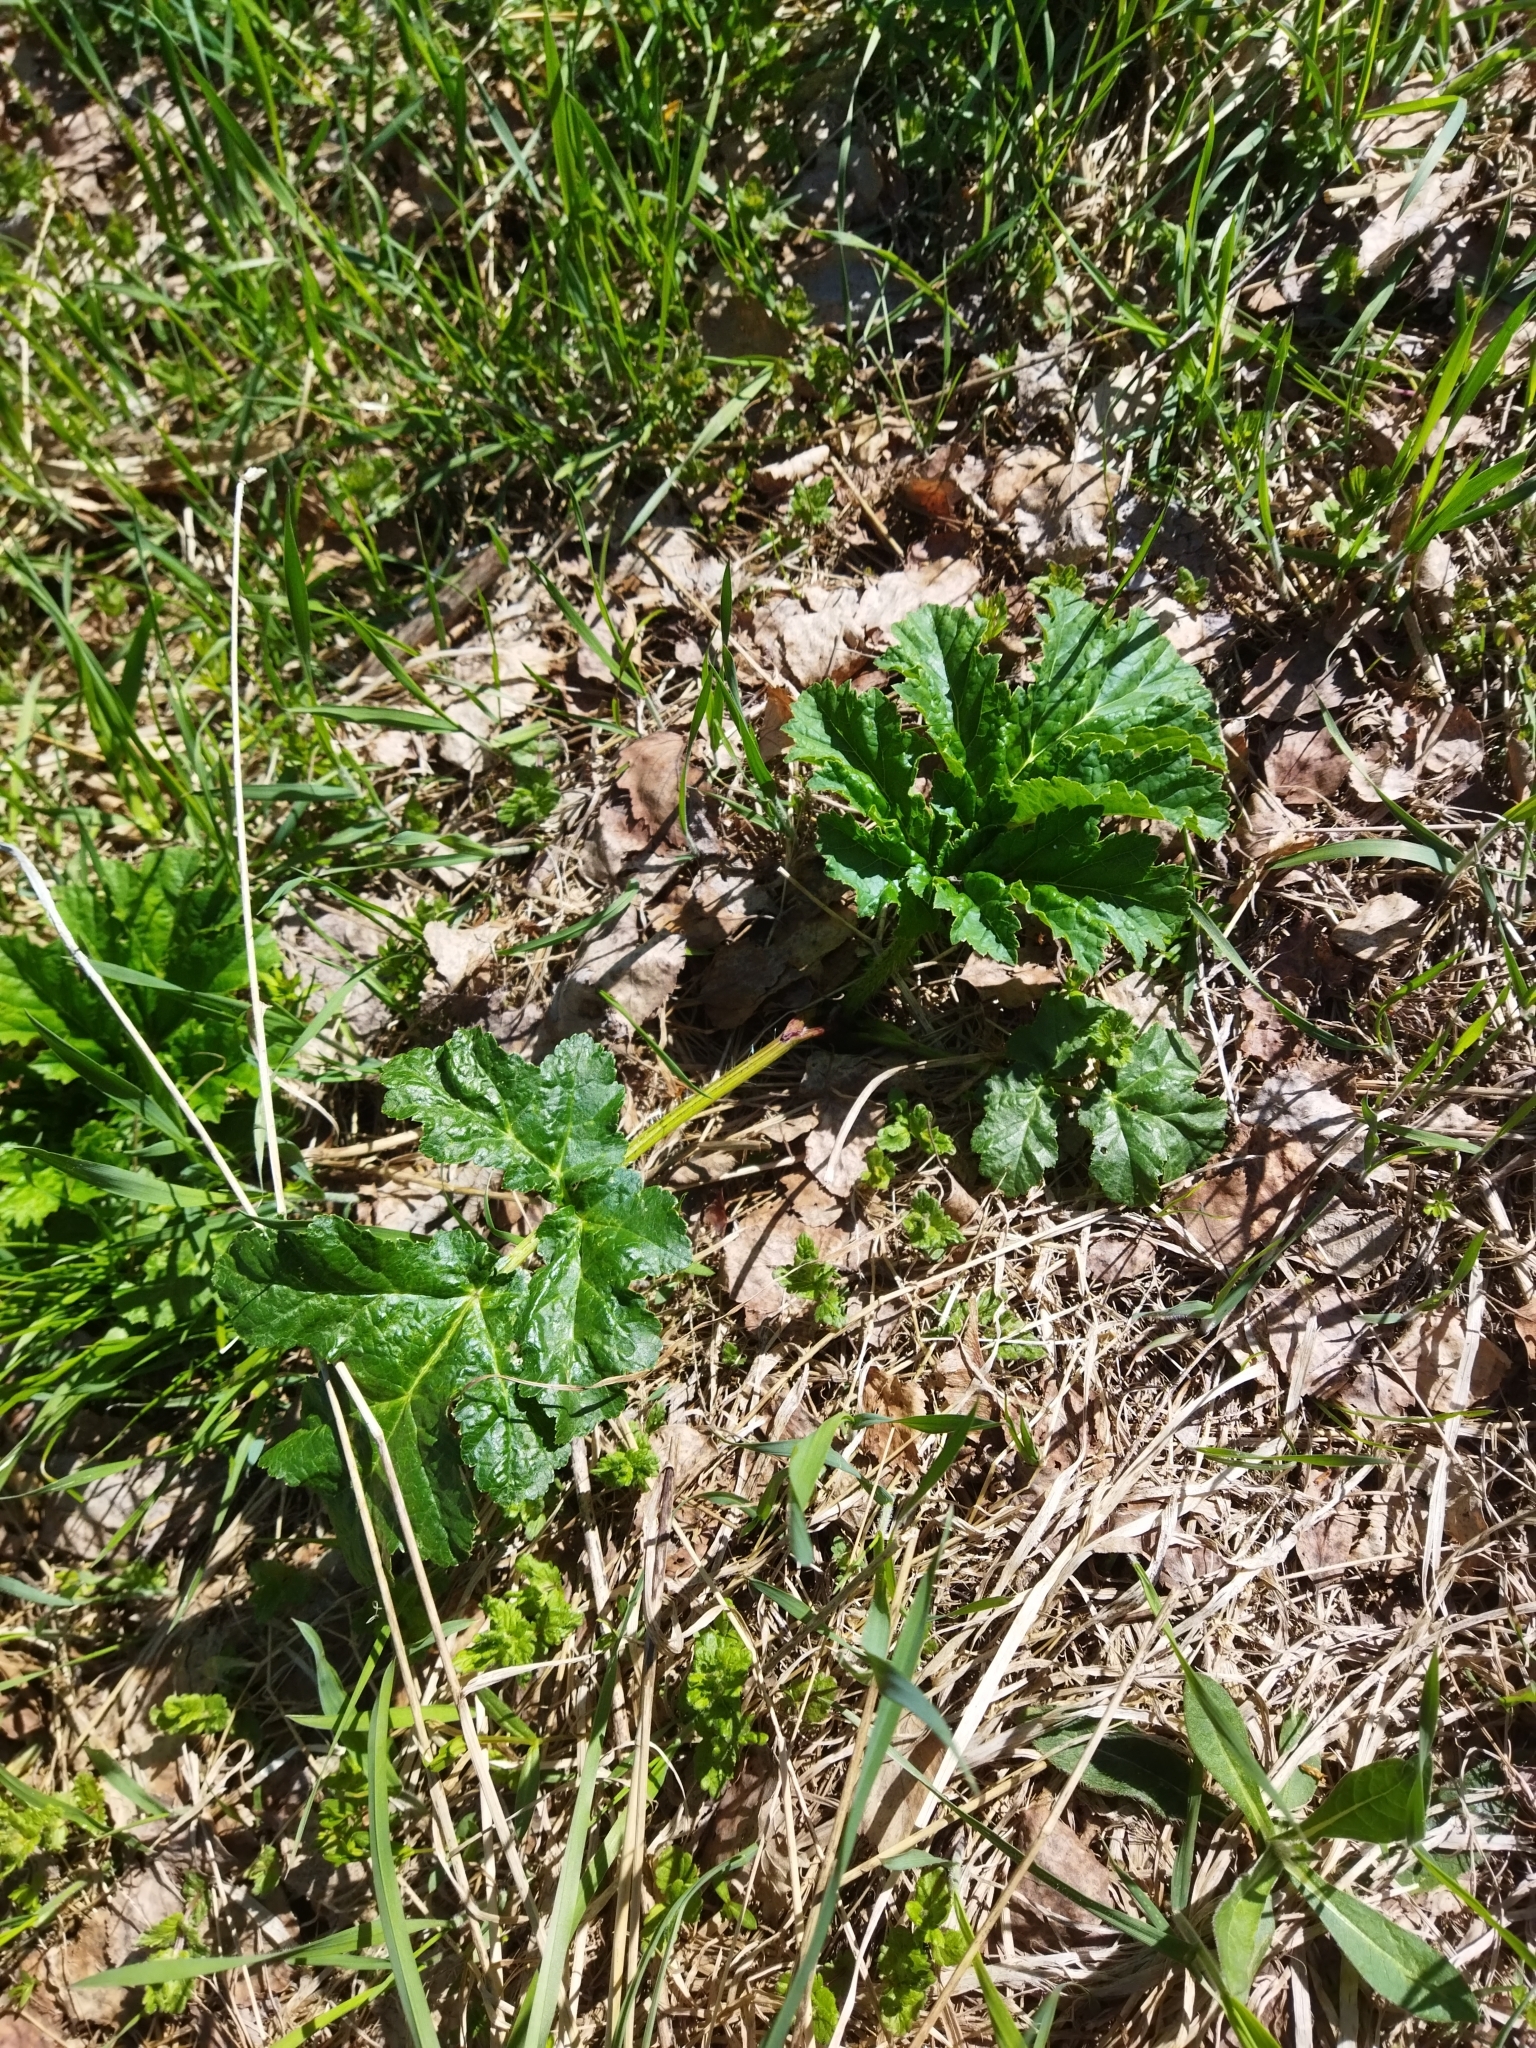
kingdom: Plantae
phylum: Tracheophyta
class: Magnoliopsida
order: Apiales
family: Apiaceae
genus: Heracleum
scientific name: Heracleum sosnowskyi
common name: Sosnowsky's hogweed
